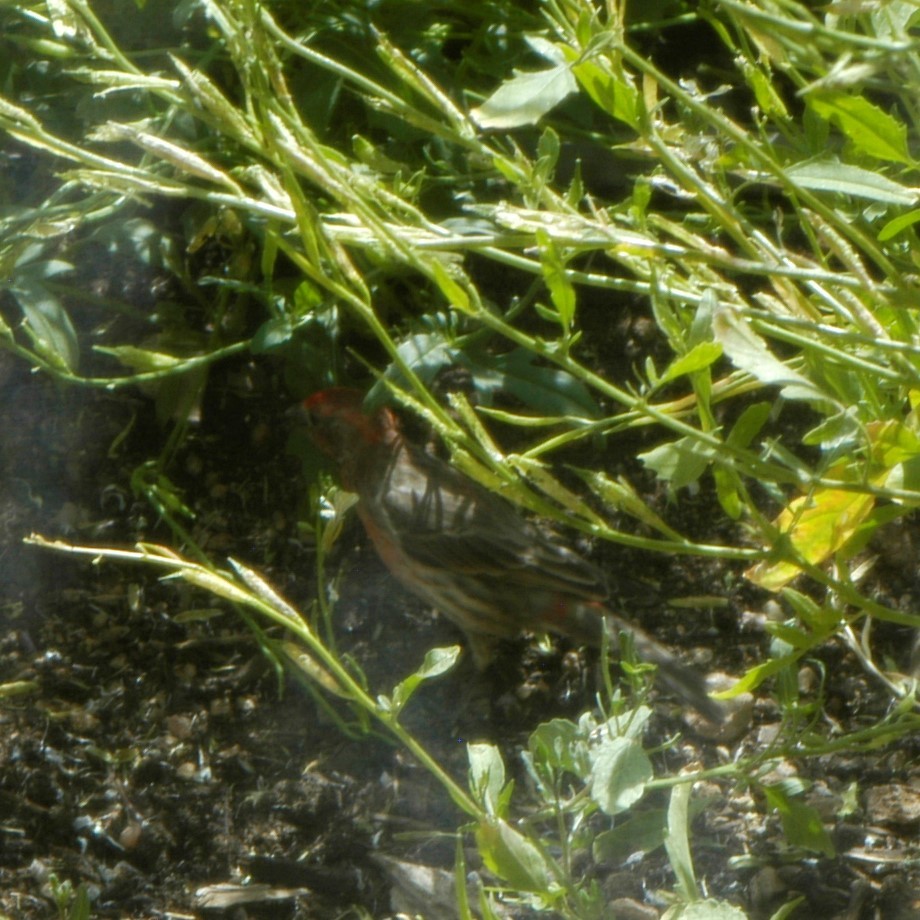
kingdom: Animalia
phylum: Chordata
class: Aves
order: Passeriformes
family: Fringillidae
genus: Haemorhous
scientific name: Haemorhous mexicanus
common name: House finch
